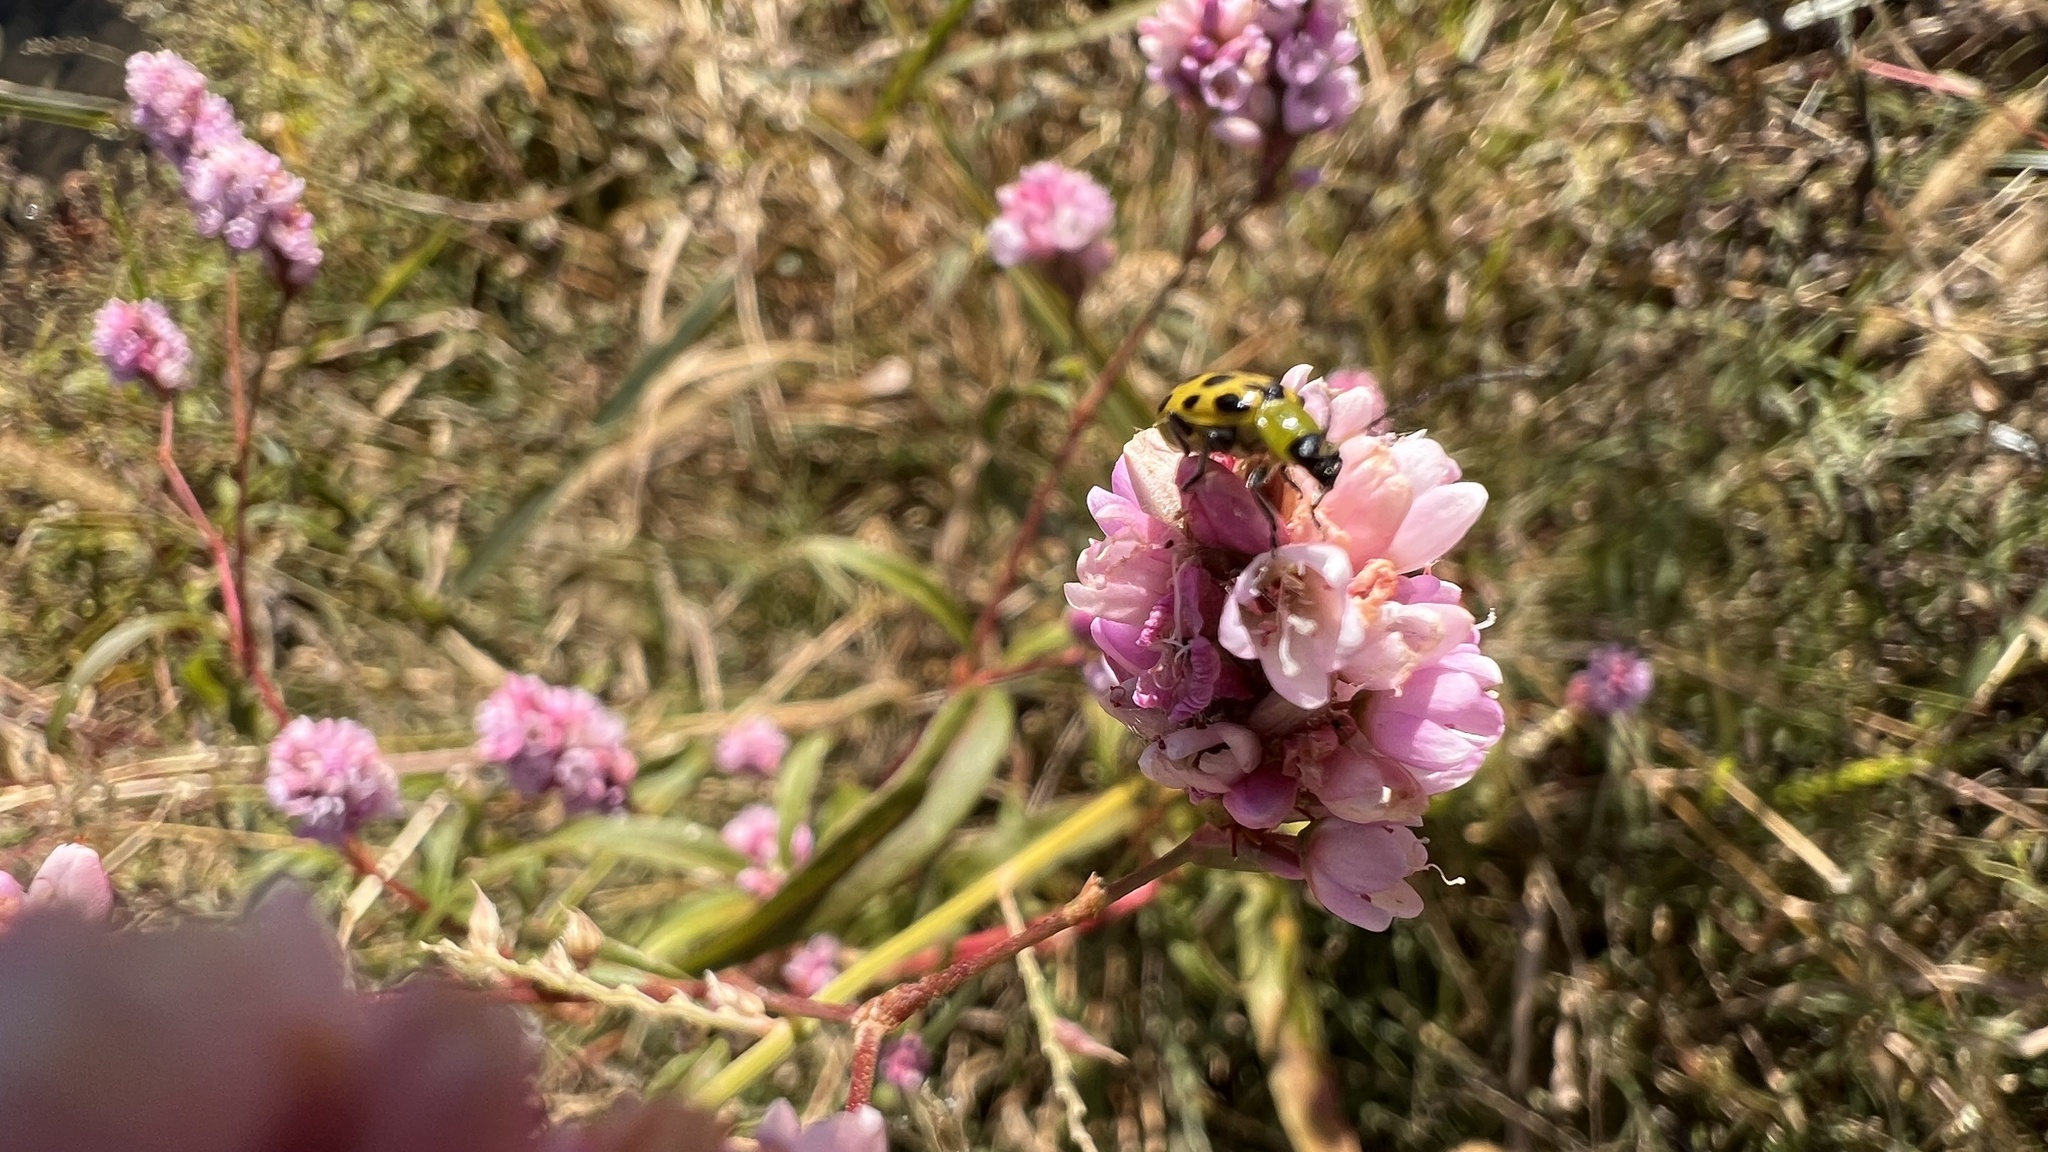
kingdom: Animalia
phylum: Arthropoda
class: Insecta
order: Coleoptera
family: Chrysomelidae
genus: Diabrotica
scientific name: Diabrotica undecimpunctata
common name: Spotted cucumber beetle
